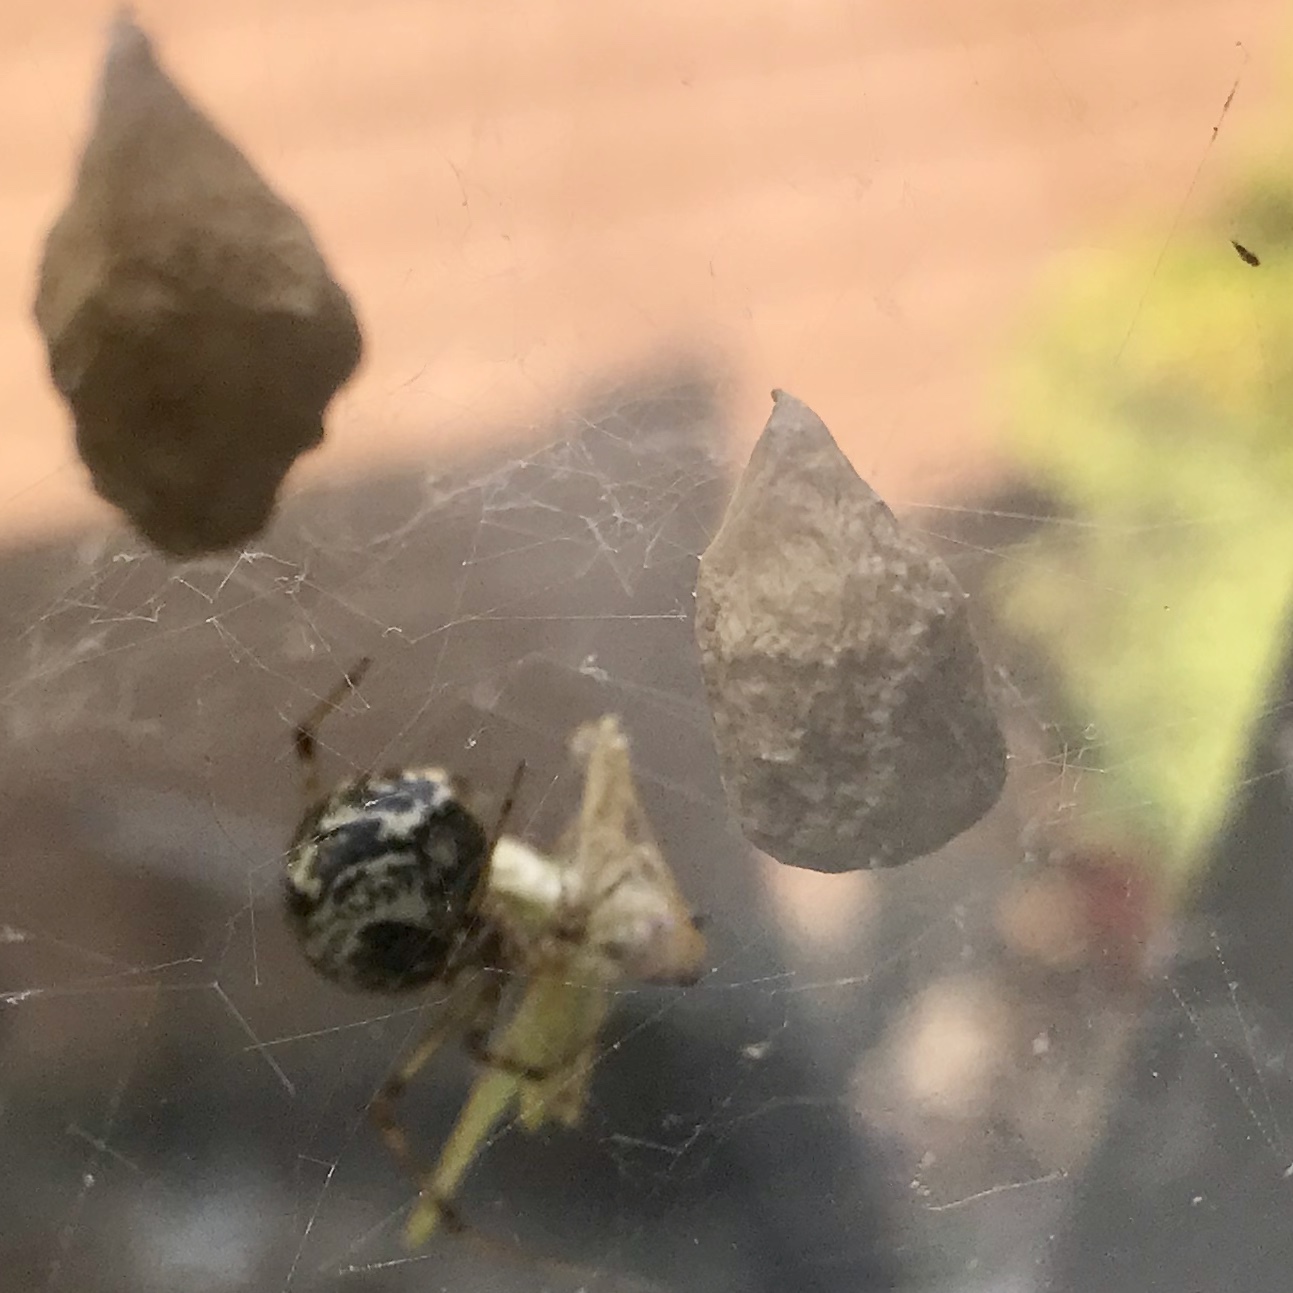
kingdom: Animalia
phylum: Arthropoda
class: Arachnida
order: Araneae
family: Theridiidae
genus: Parasteatoda
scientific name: Parasteatoda tepidariorum
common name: Common house spider
